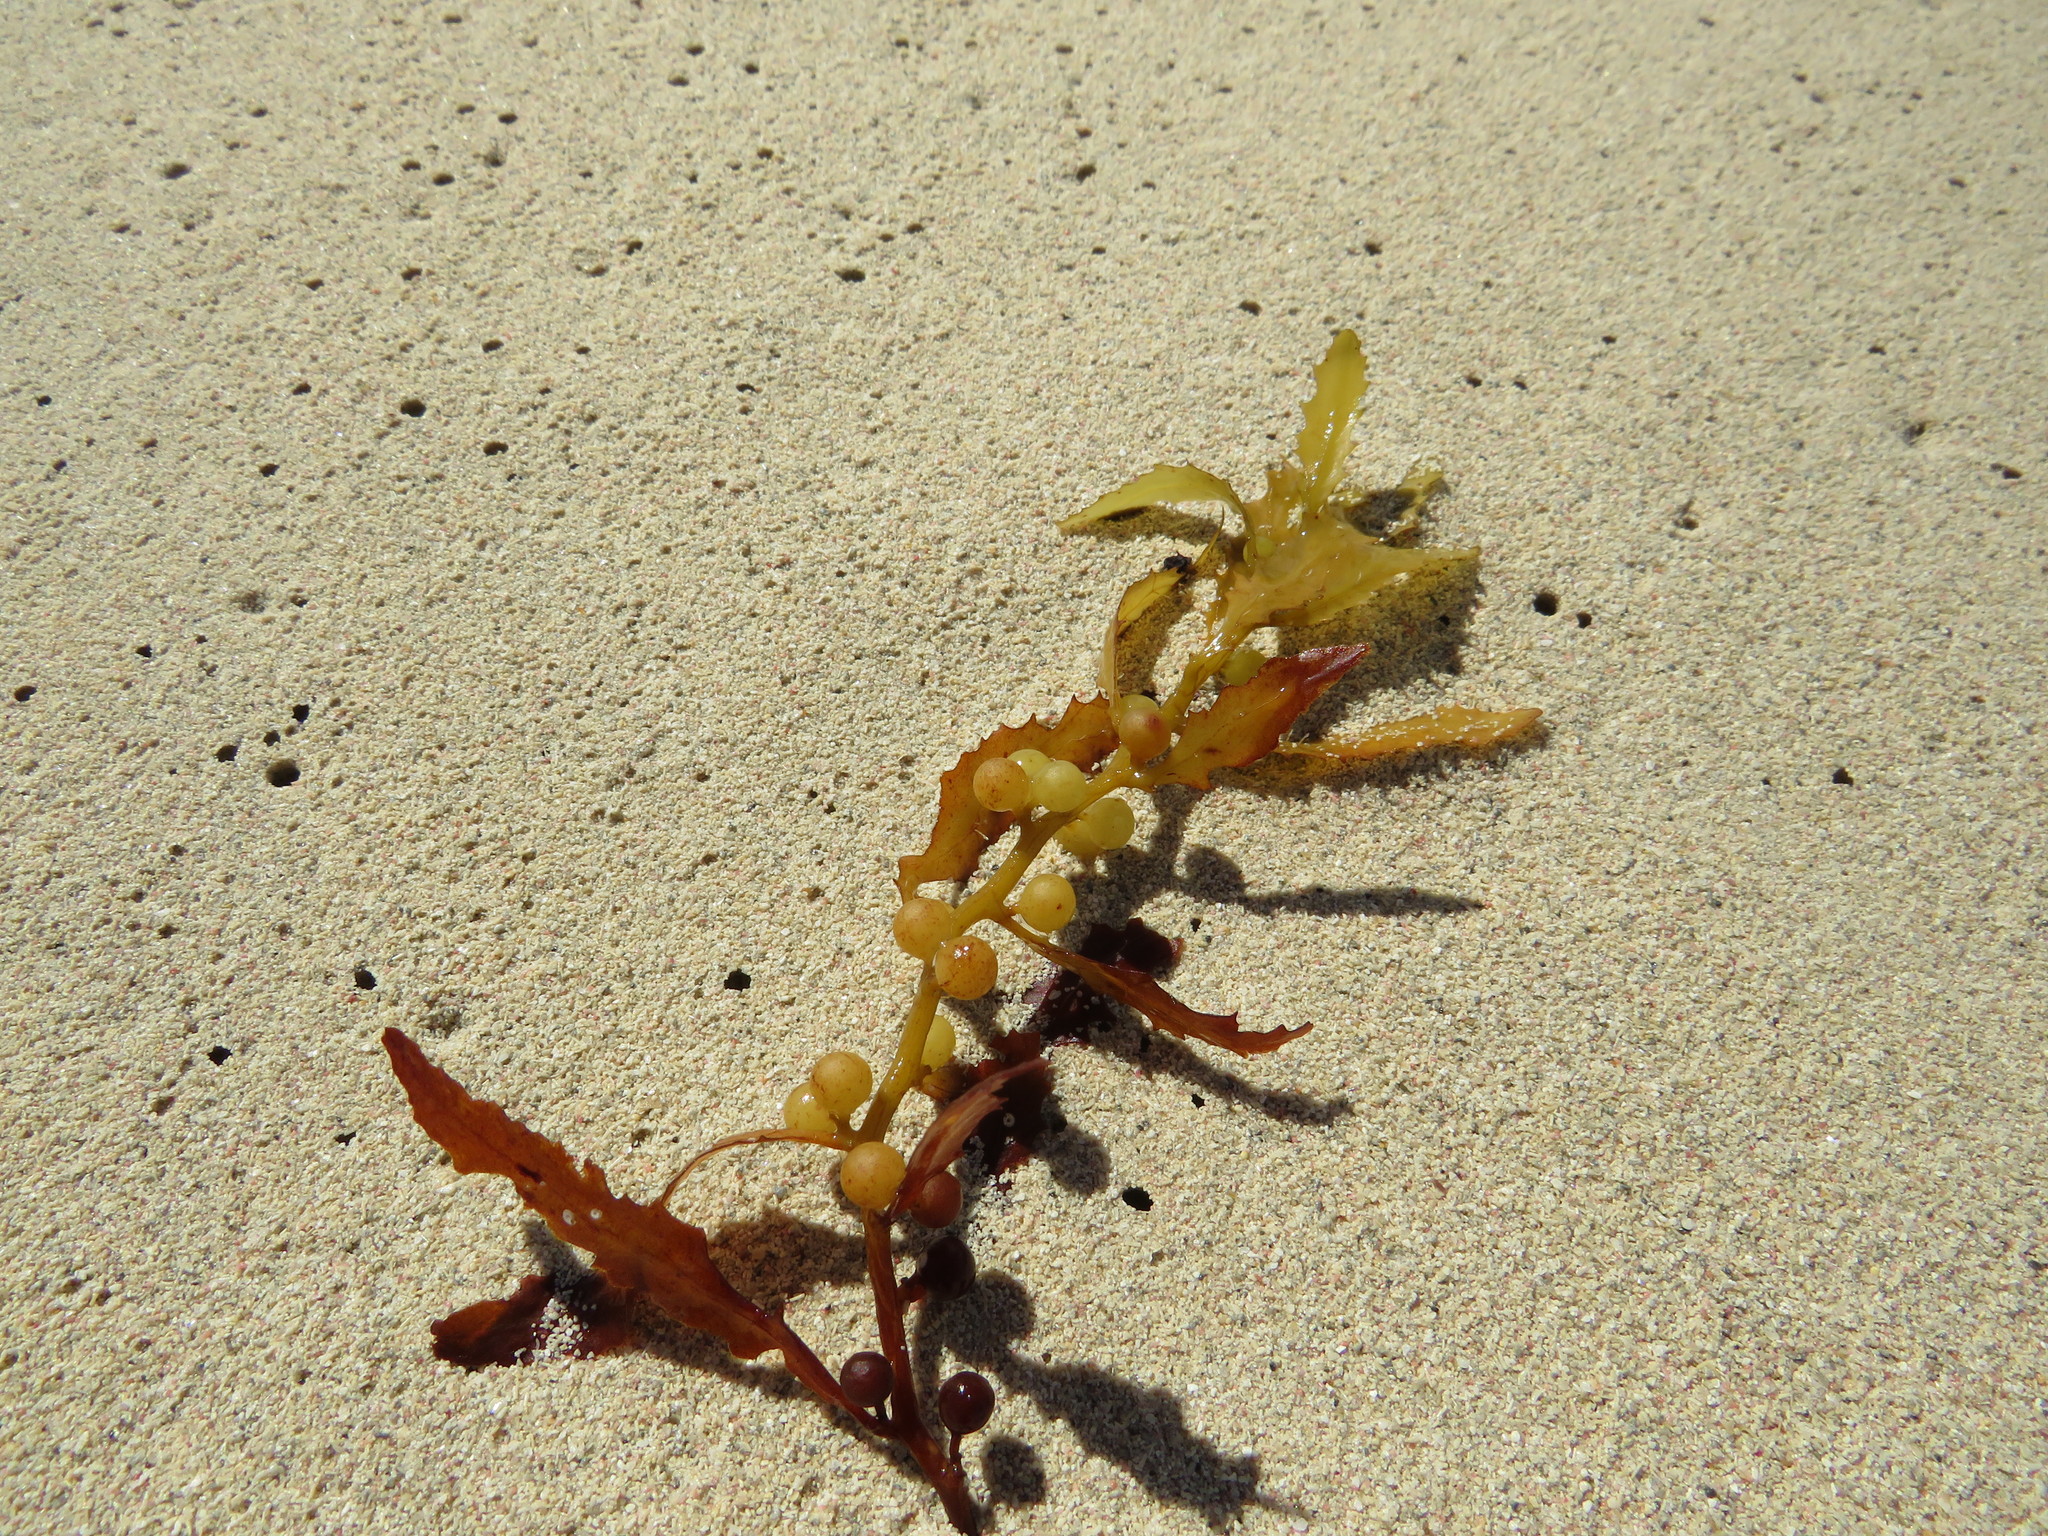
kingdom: Chromista
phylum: Ochrophyta
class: Phaeophyceae
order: Fucales
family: Sargassaceae
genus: Sargassum
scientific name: Sargassum fluitans
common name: Sargassum seaweed
